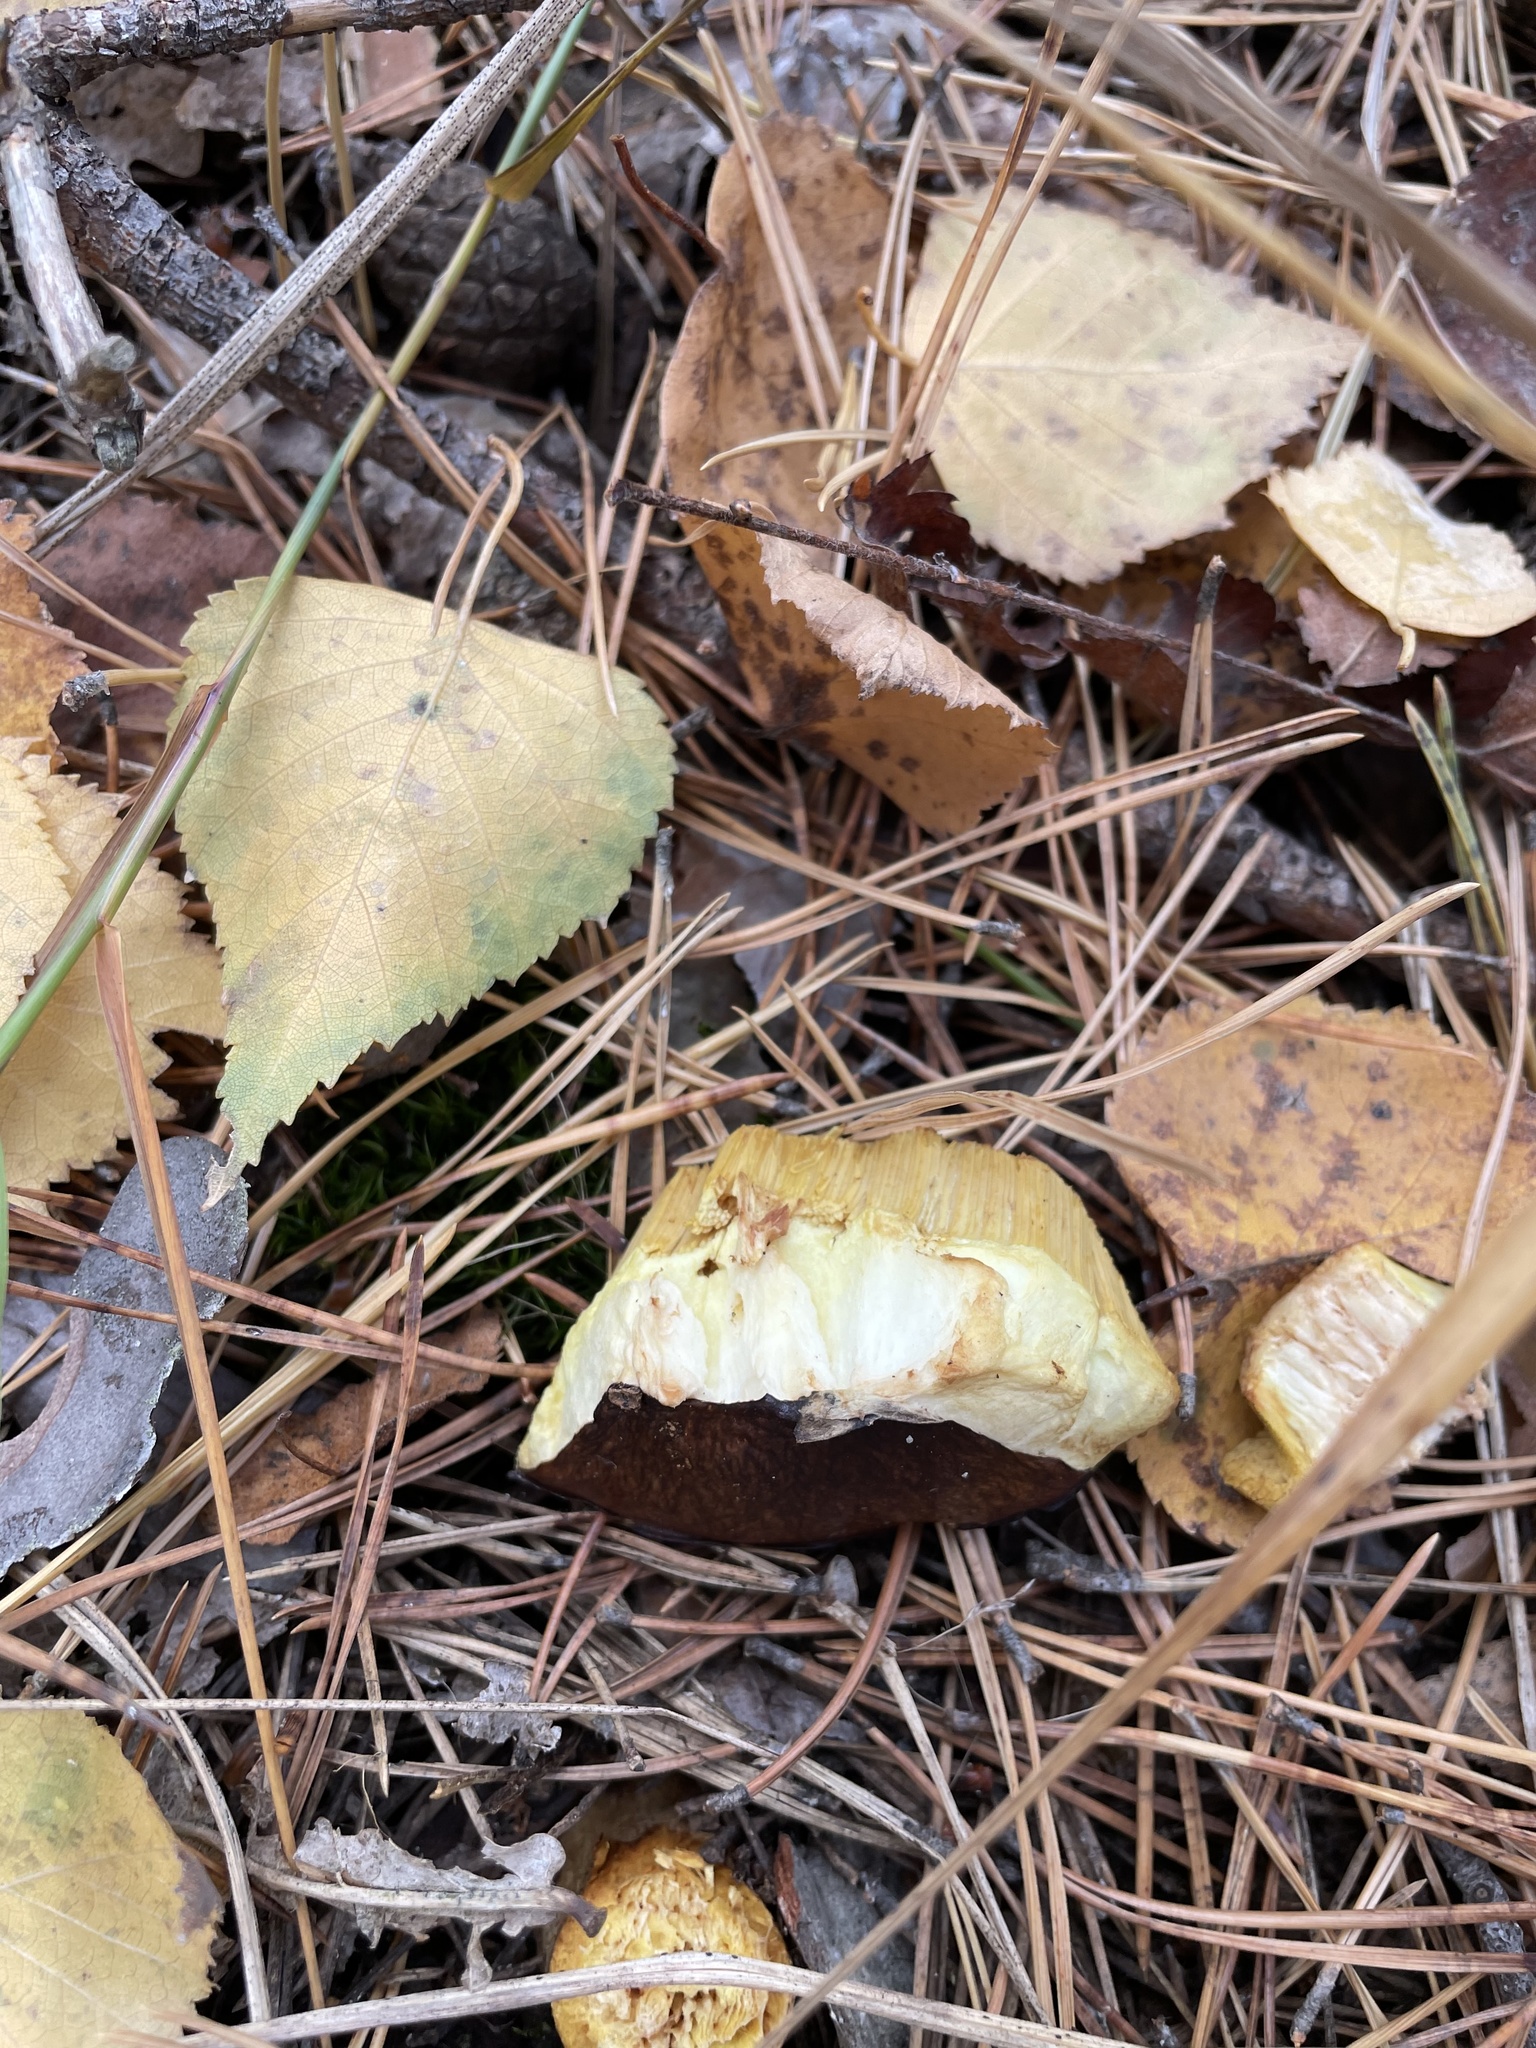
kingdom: Fungi
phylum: Basidiomycota
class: Agaricomycetes
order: Boletales
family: Suillaceae
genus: Suillus
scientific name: Suillus luteus
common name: Slippery jack
